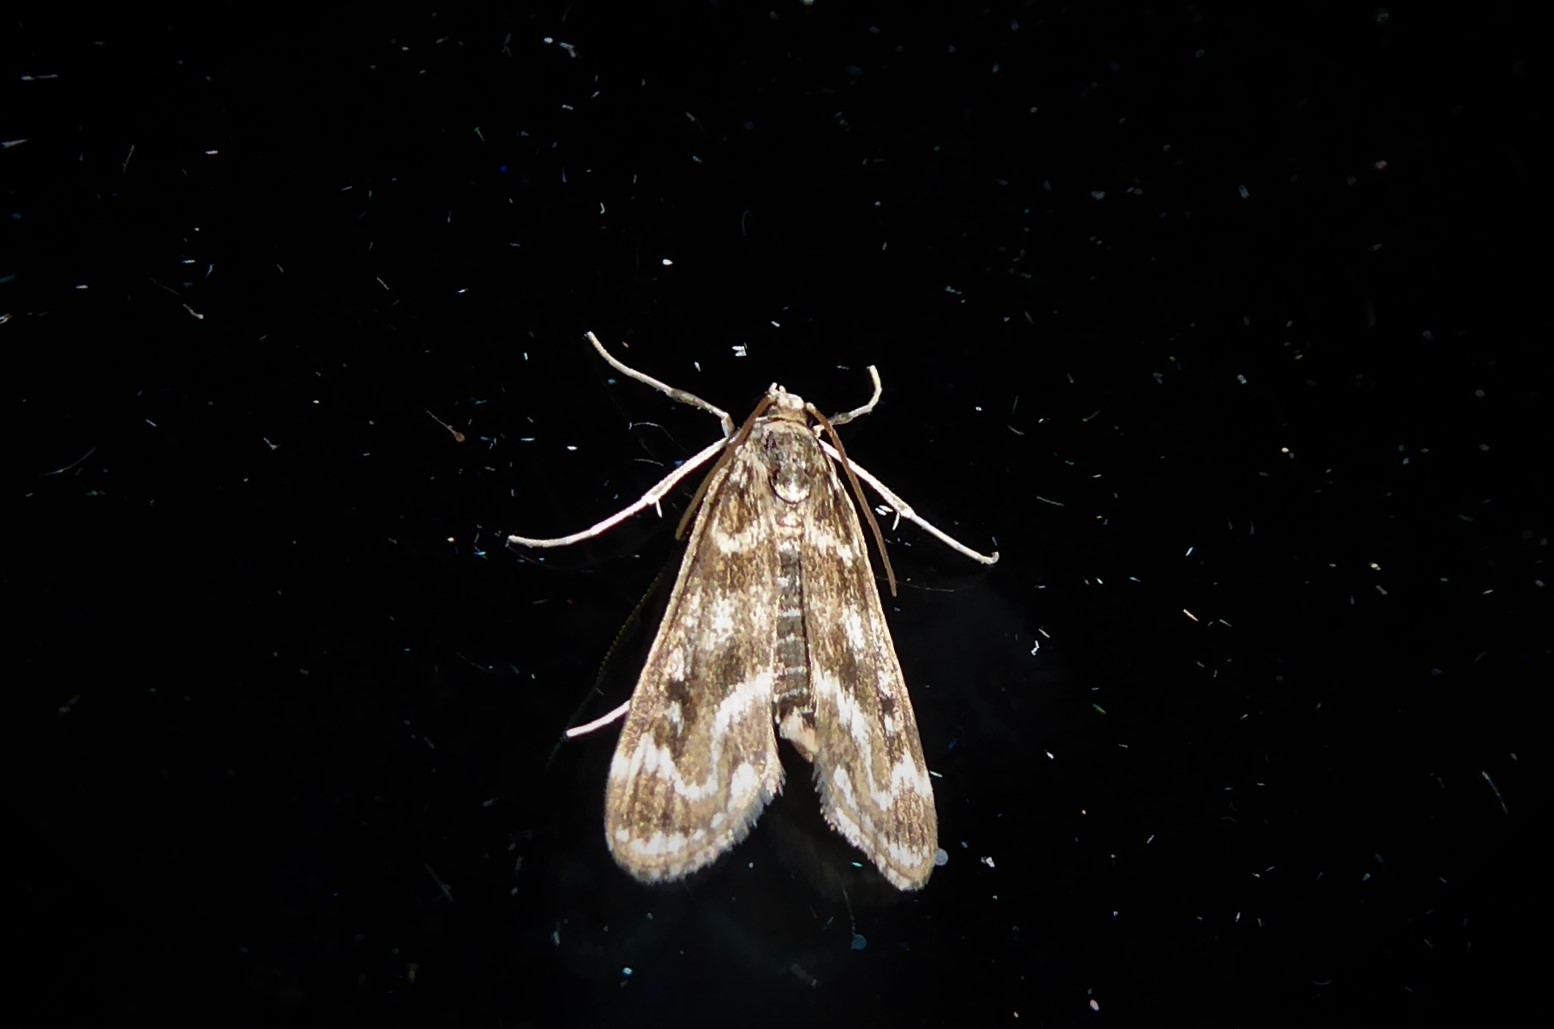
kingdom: Animalia
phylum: Arthropoda
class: Insecta
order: Lepidoptera
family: Crambidae
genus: Hygraula
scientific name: Hygraula nitens
